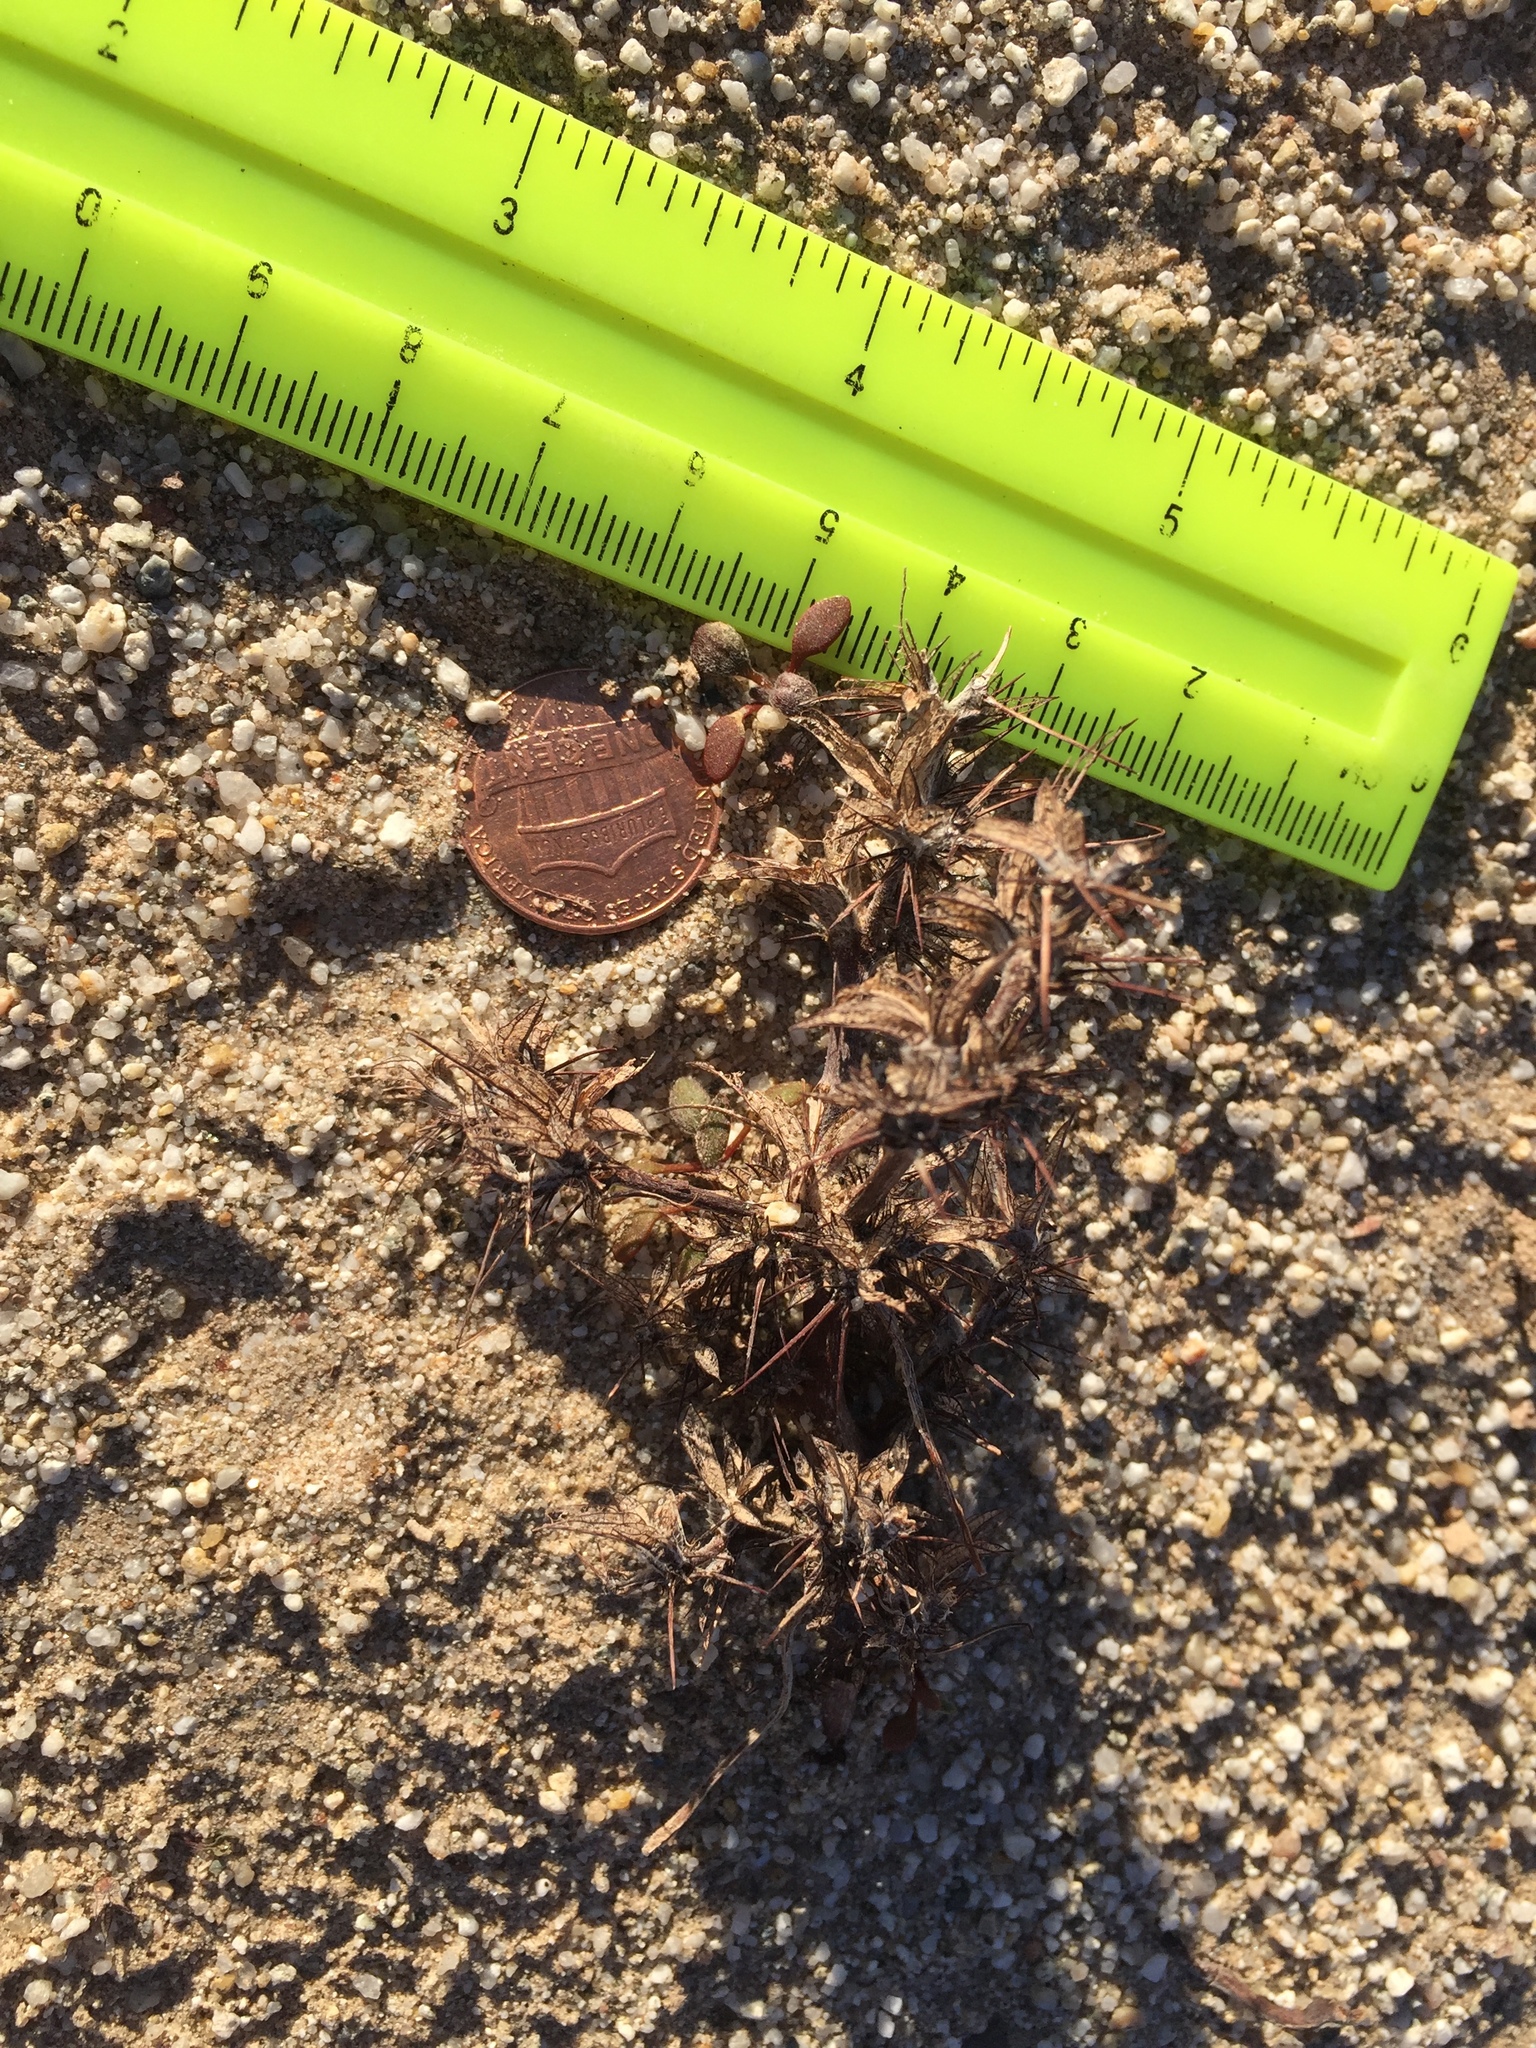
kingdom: Plantae
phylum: Tracheophyta
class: Magnoliopsida
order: Caryophyllales
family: Polygonaceae
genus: Chorizanthe
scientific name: Chorizanthe rigida
